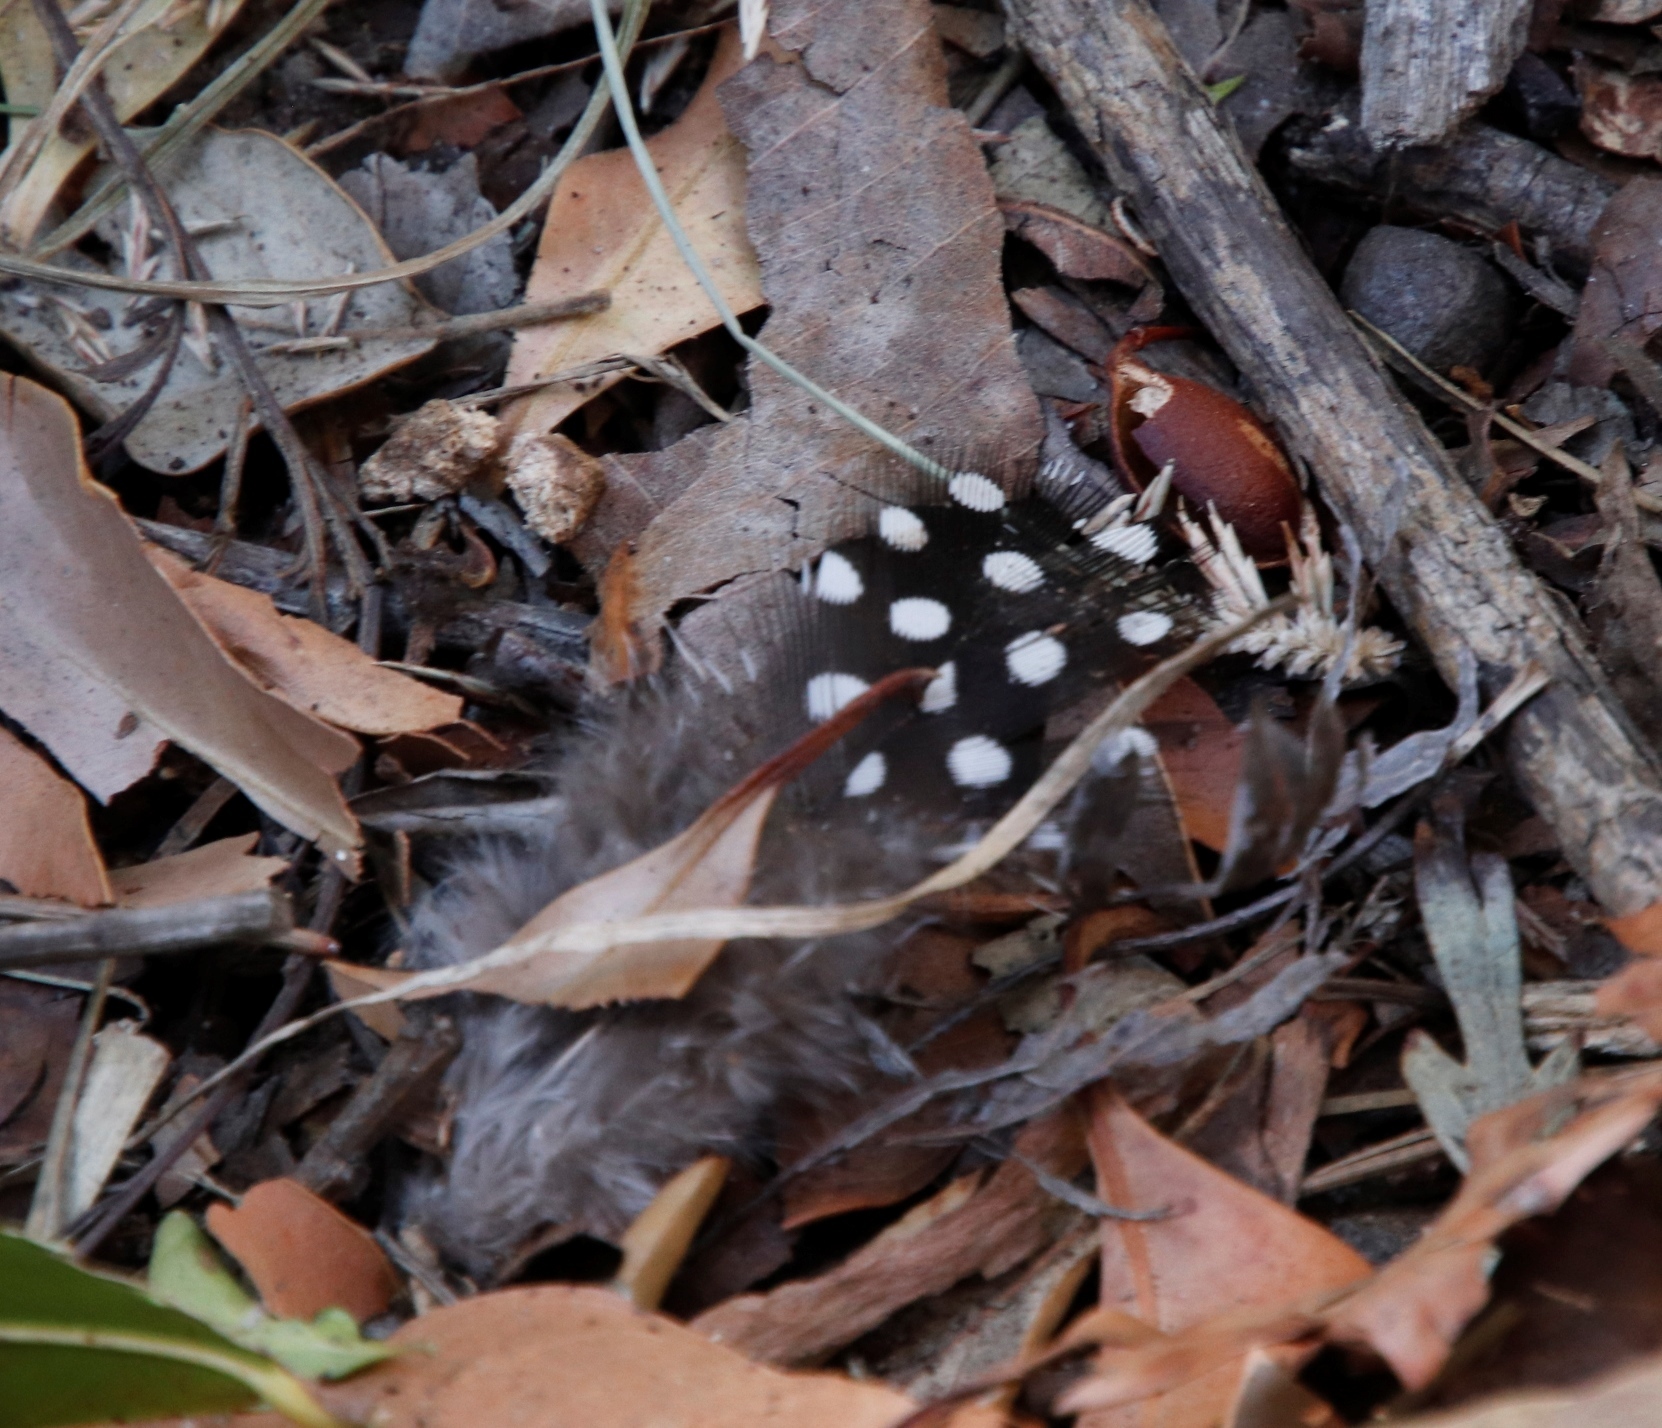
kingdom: Animalia
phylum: Chordata
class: Aves
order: Galliformes
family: Numididae
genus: Numida
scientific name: Numida meleagris
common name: Helmeted guineafowl
